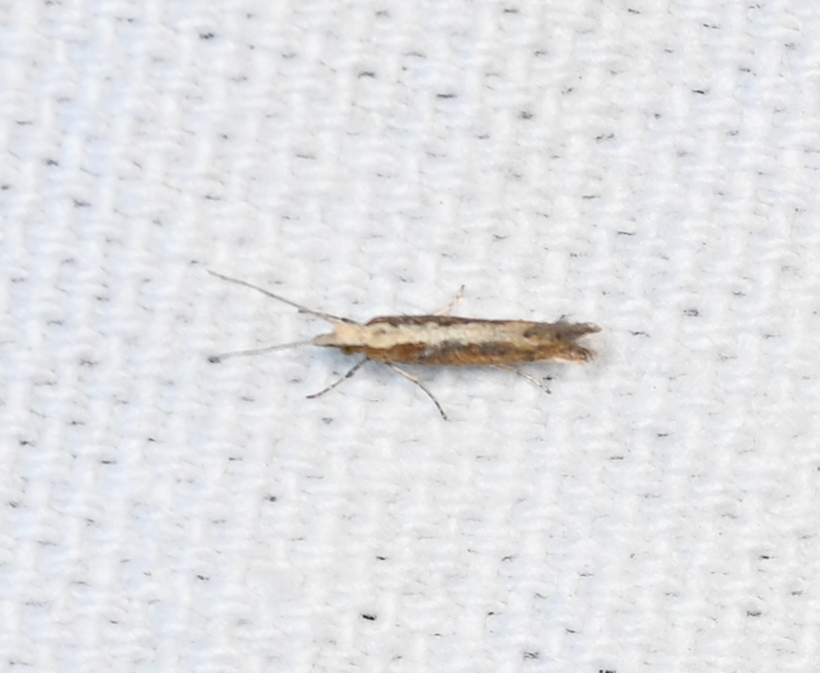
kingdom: Animalia
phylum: Arthropoda
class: Insecta
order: Lepidoptera
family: Plutellidae
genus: Plutella
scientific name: Plutella xylostella
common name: Diamond-back moth
